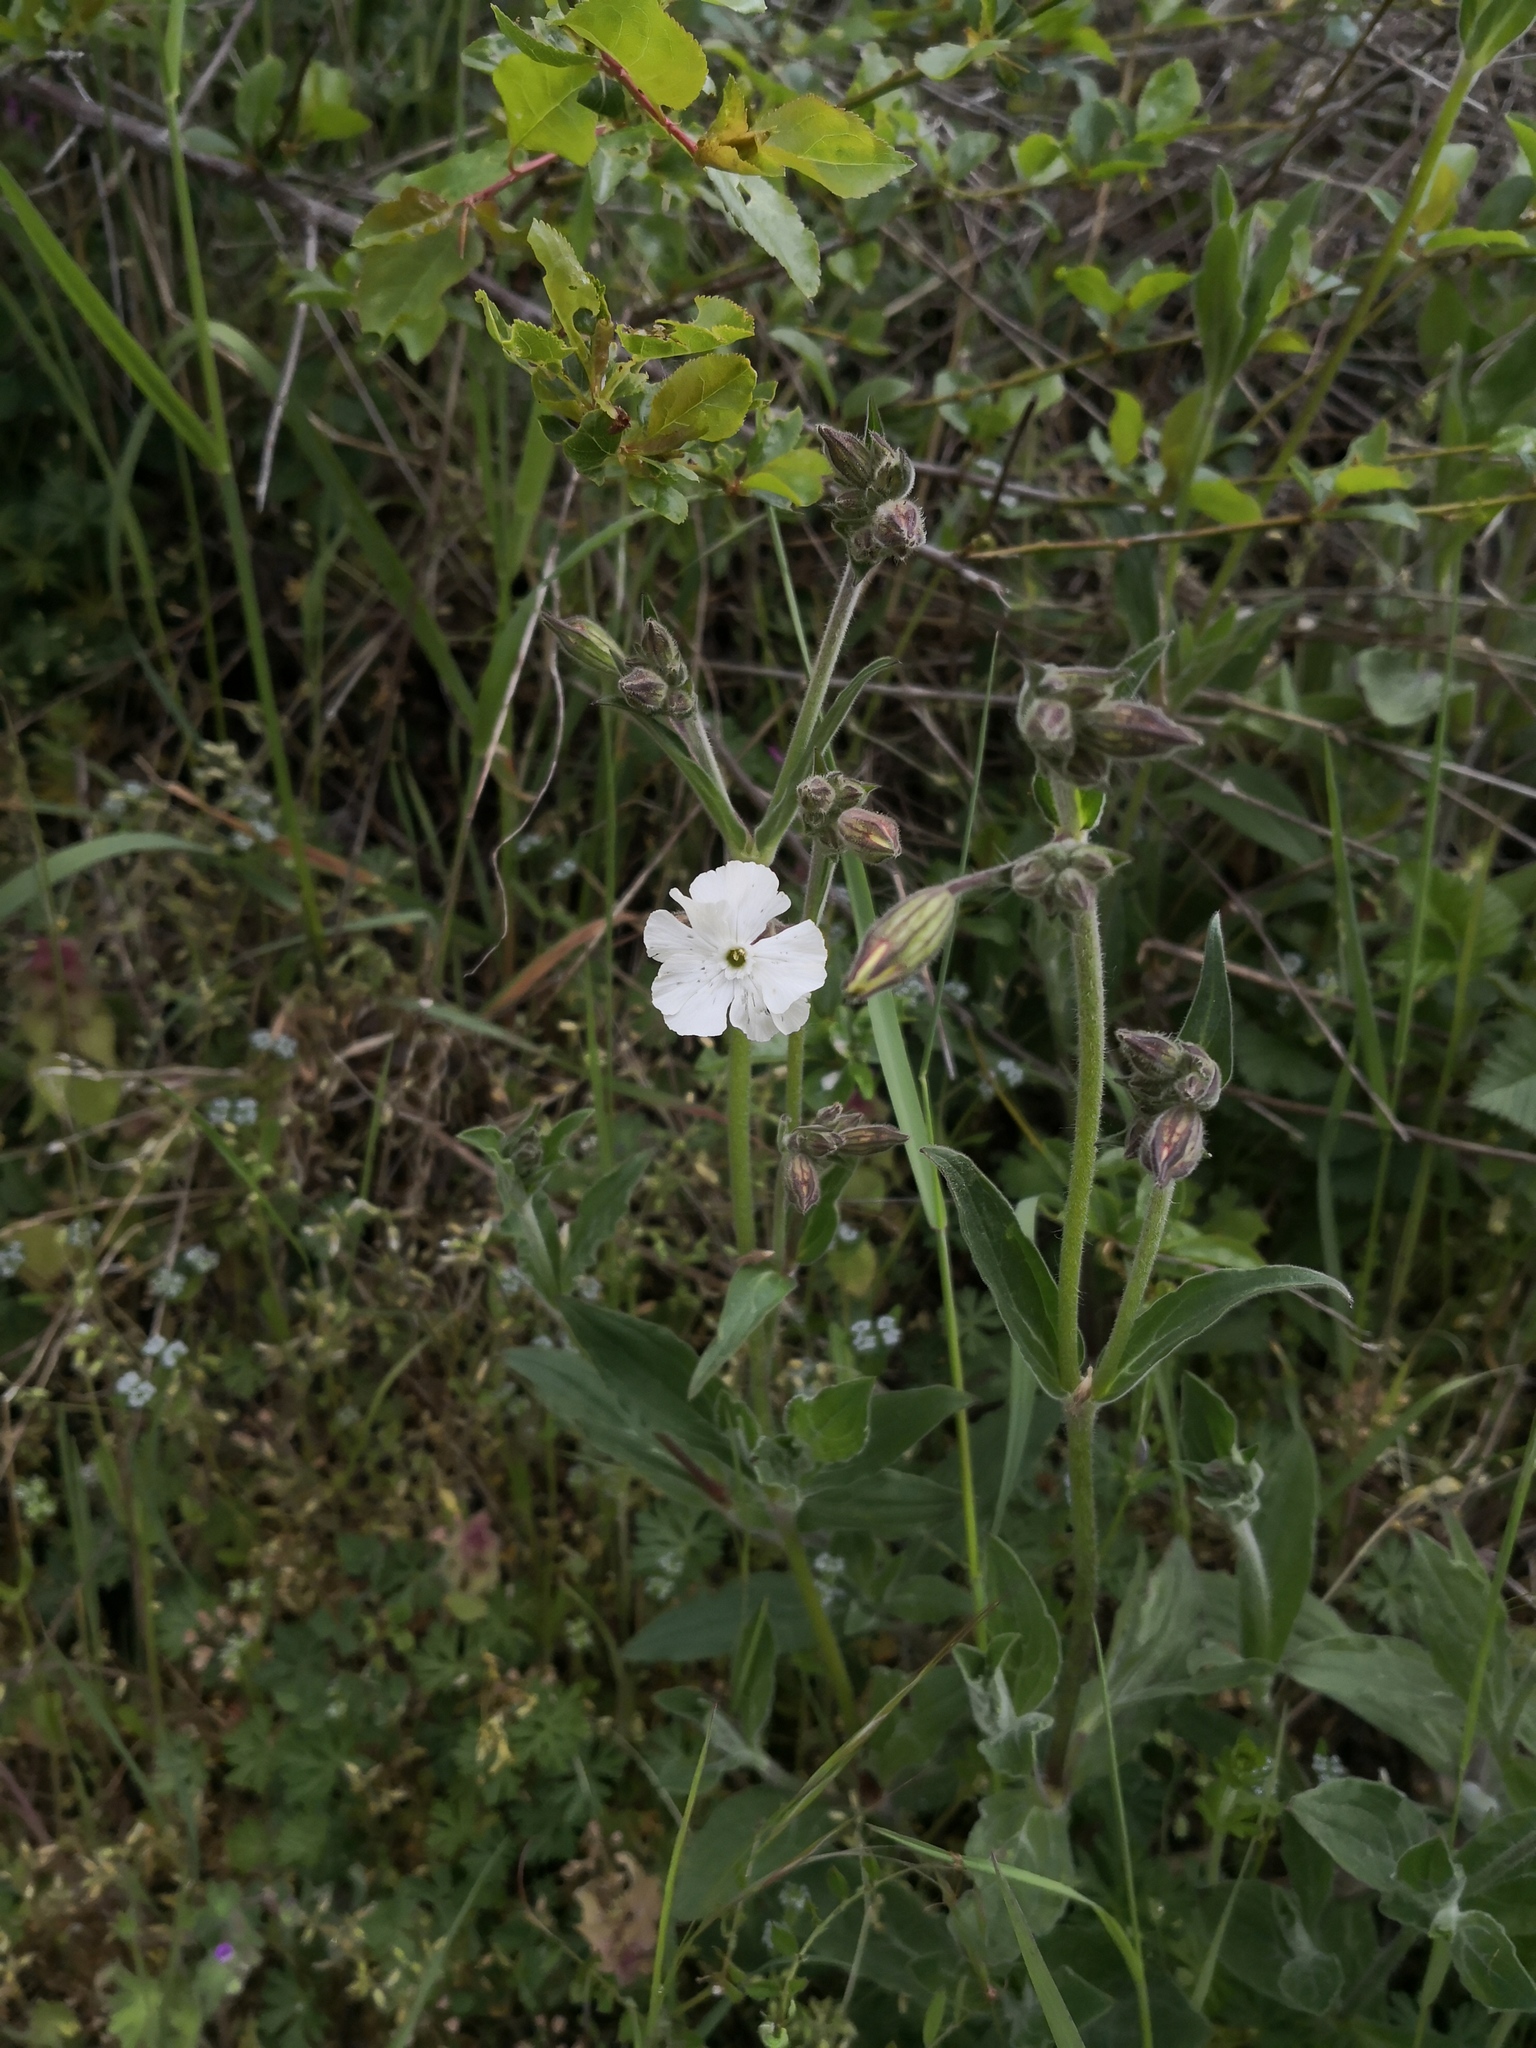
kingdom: Plantae
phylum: Tracheophyta
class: Magnoliopsida
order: Caryophyllales
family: Caryophyllaceae
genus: Silene
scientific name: Silene latifolia
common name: White campion
